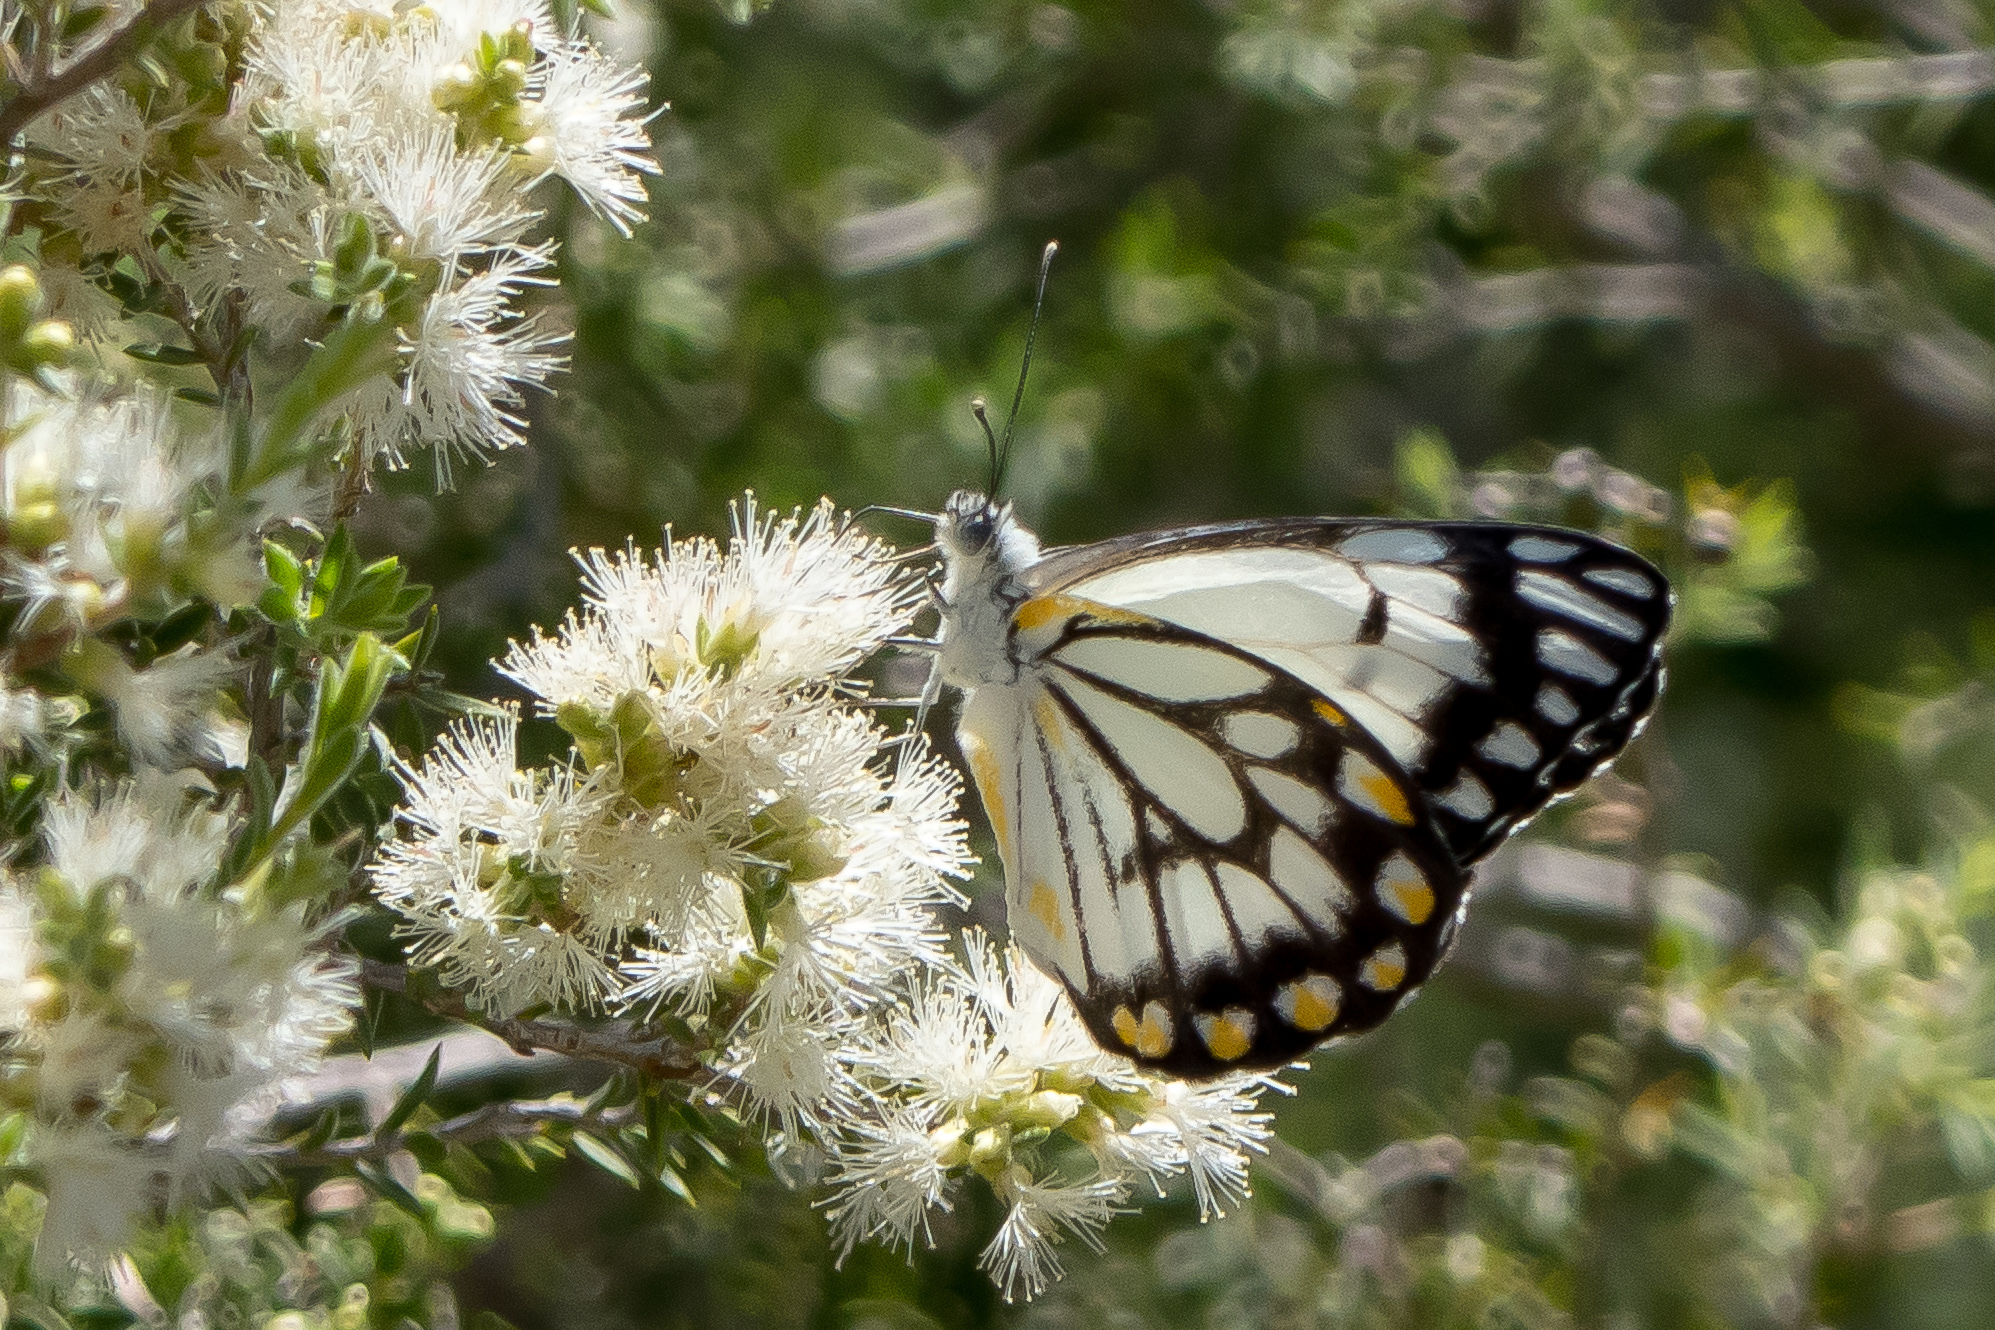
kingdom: Animalia
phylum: Arthropoda
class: Insecta
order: Lepidoptera
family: Pieridae
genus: Belenois
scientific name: Belenois java
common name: Caper white
